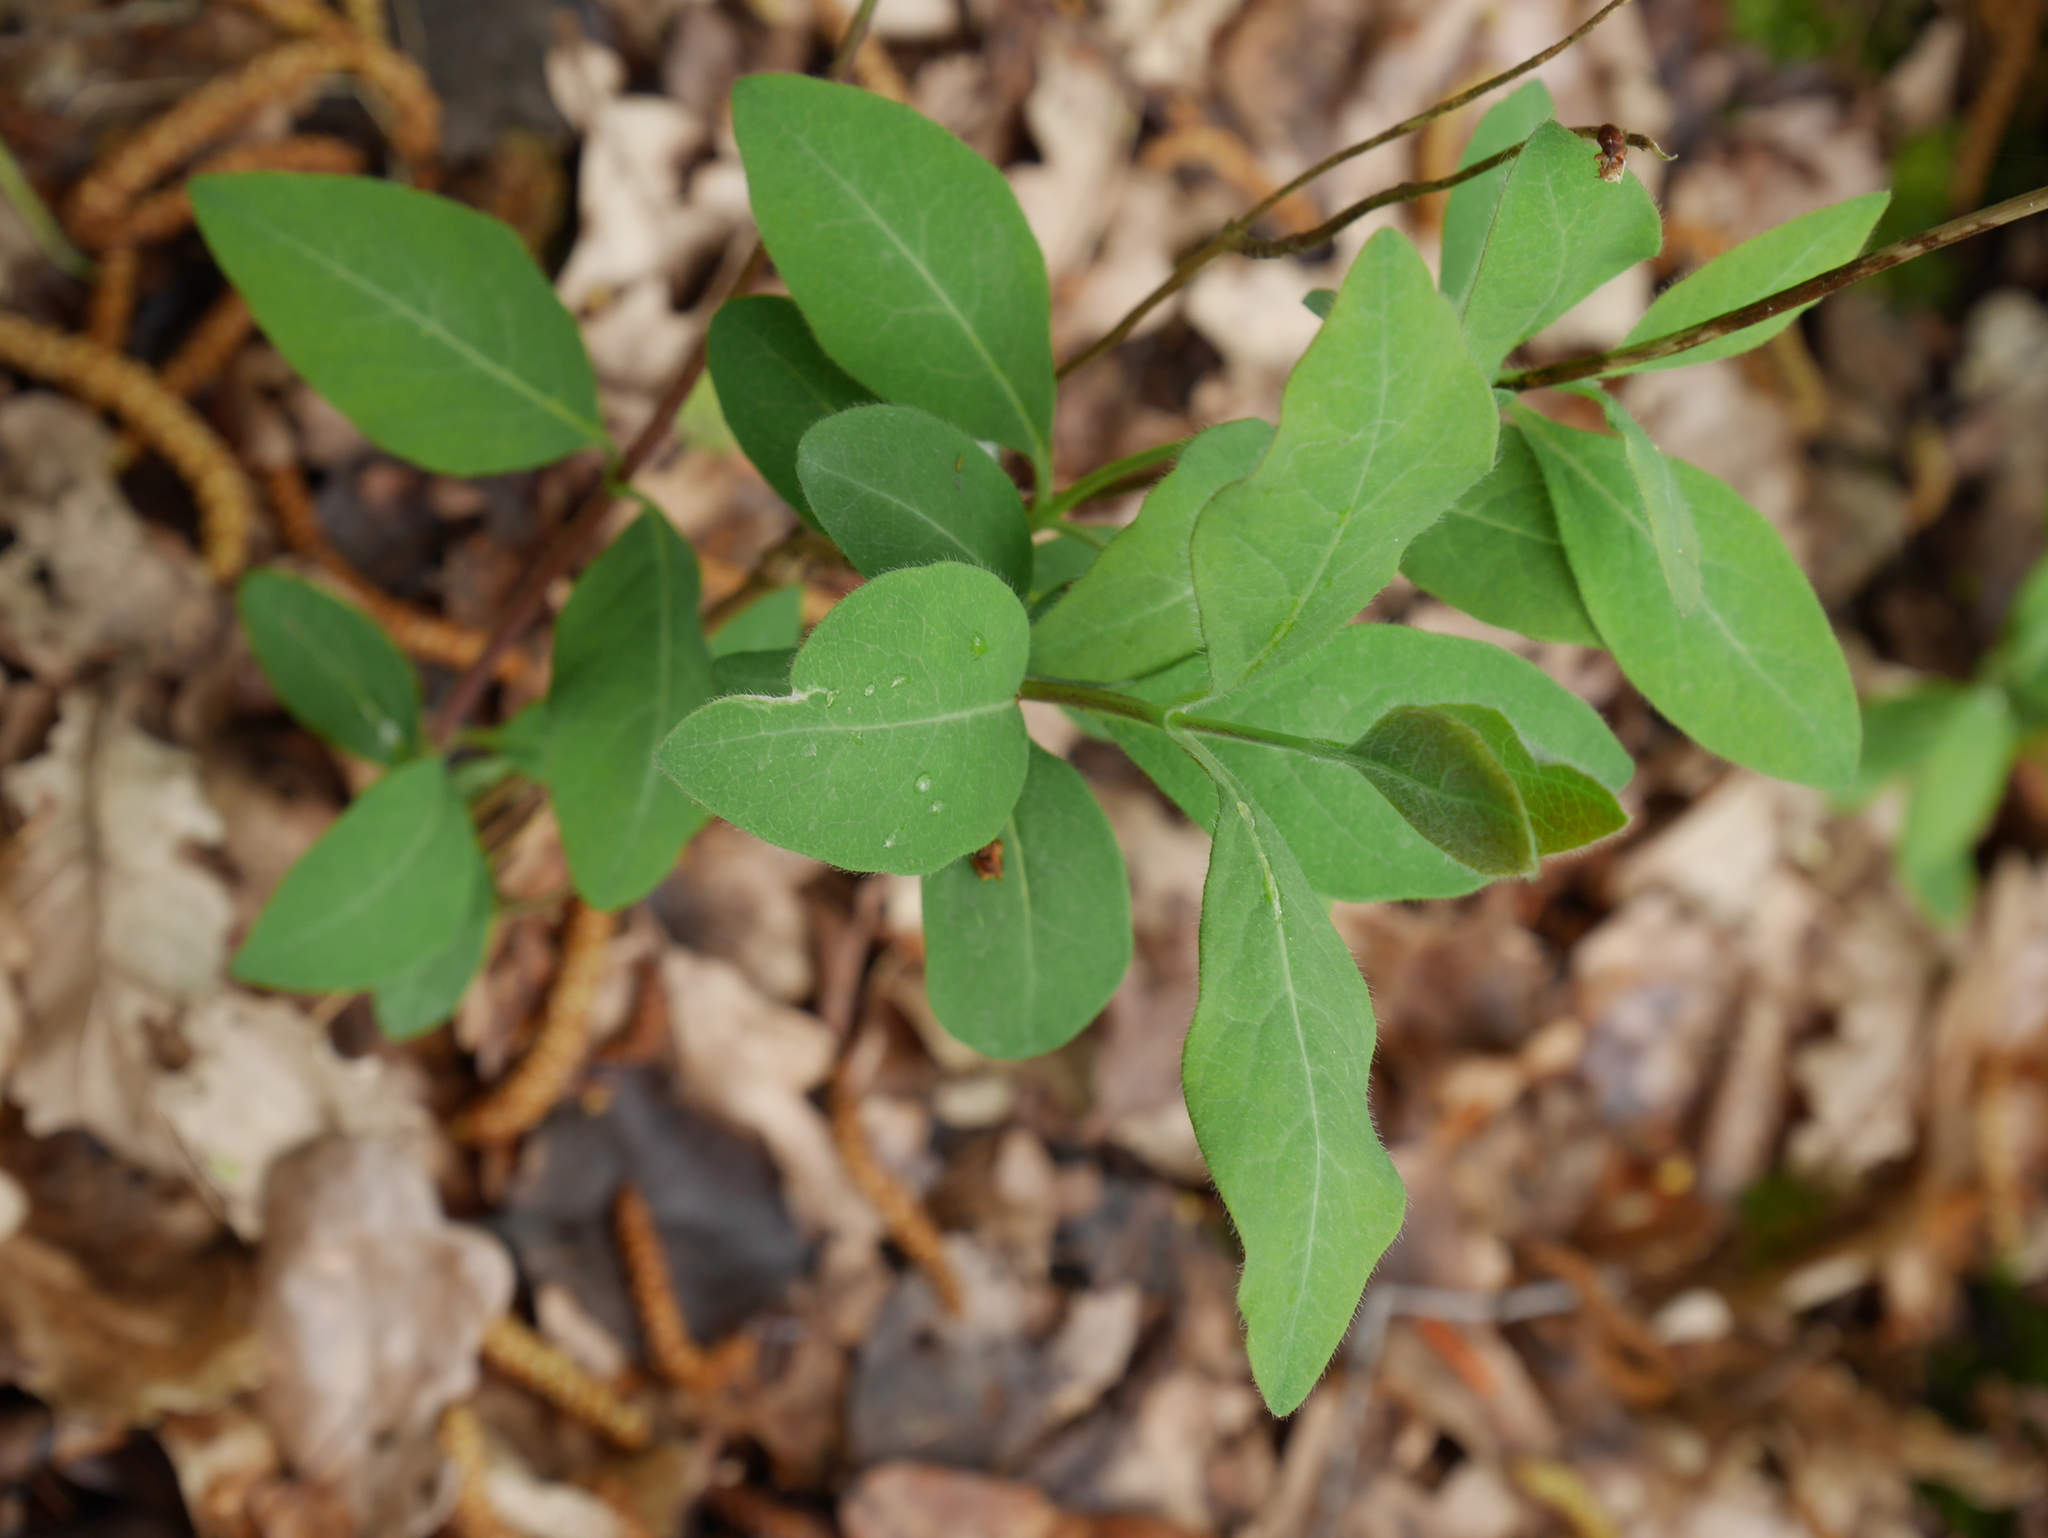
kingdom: Plantae
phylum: Tracheophyta
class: Magnoliopsida
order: Dipsacales
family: Caprifoliaceae
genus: Lonicera
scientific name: Lonicera periclymenum
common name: European honeysuckle
